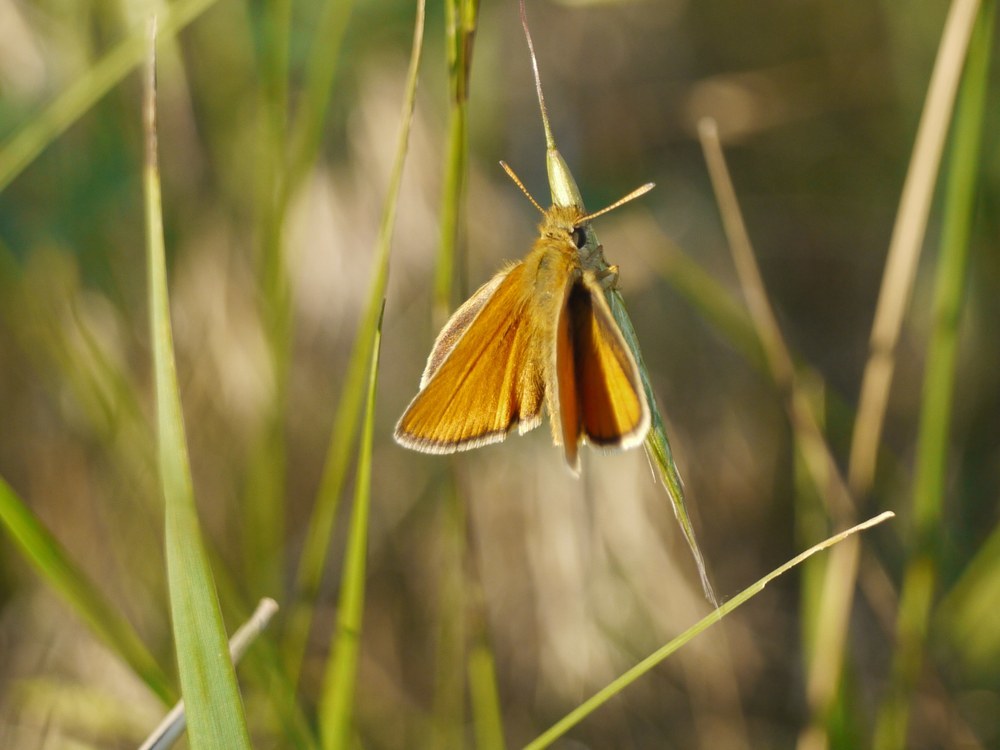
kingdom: Animalia
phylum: Arthropoda
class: Insecta
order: Lepidoptera
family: Hesperiidae
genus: Thymelicus
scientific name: Thymelicus lineola
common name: Essex skipper
